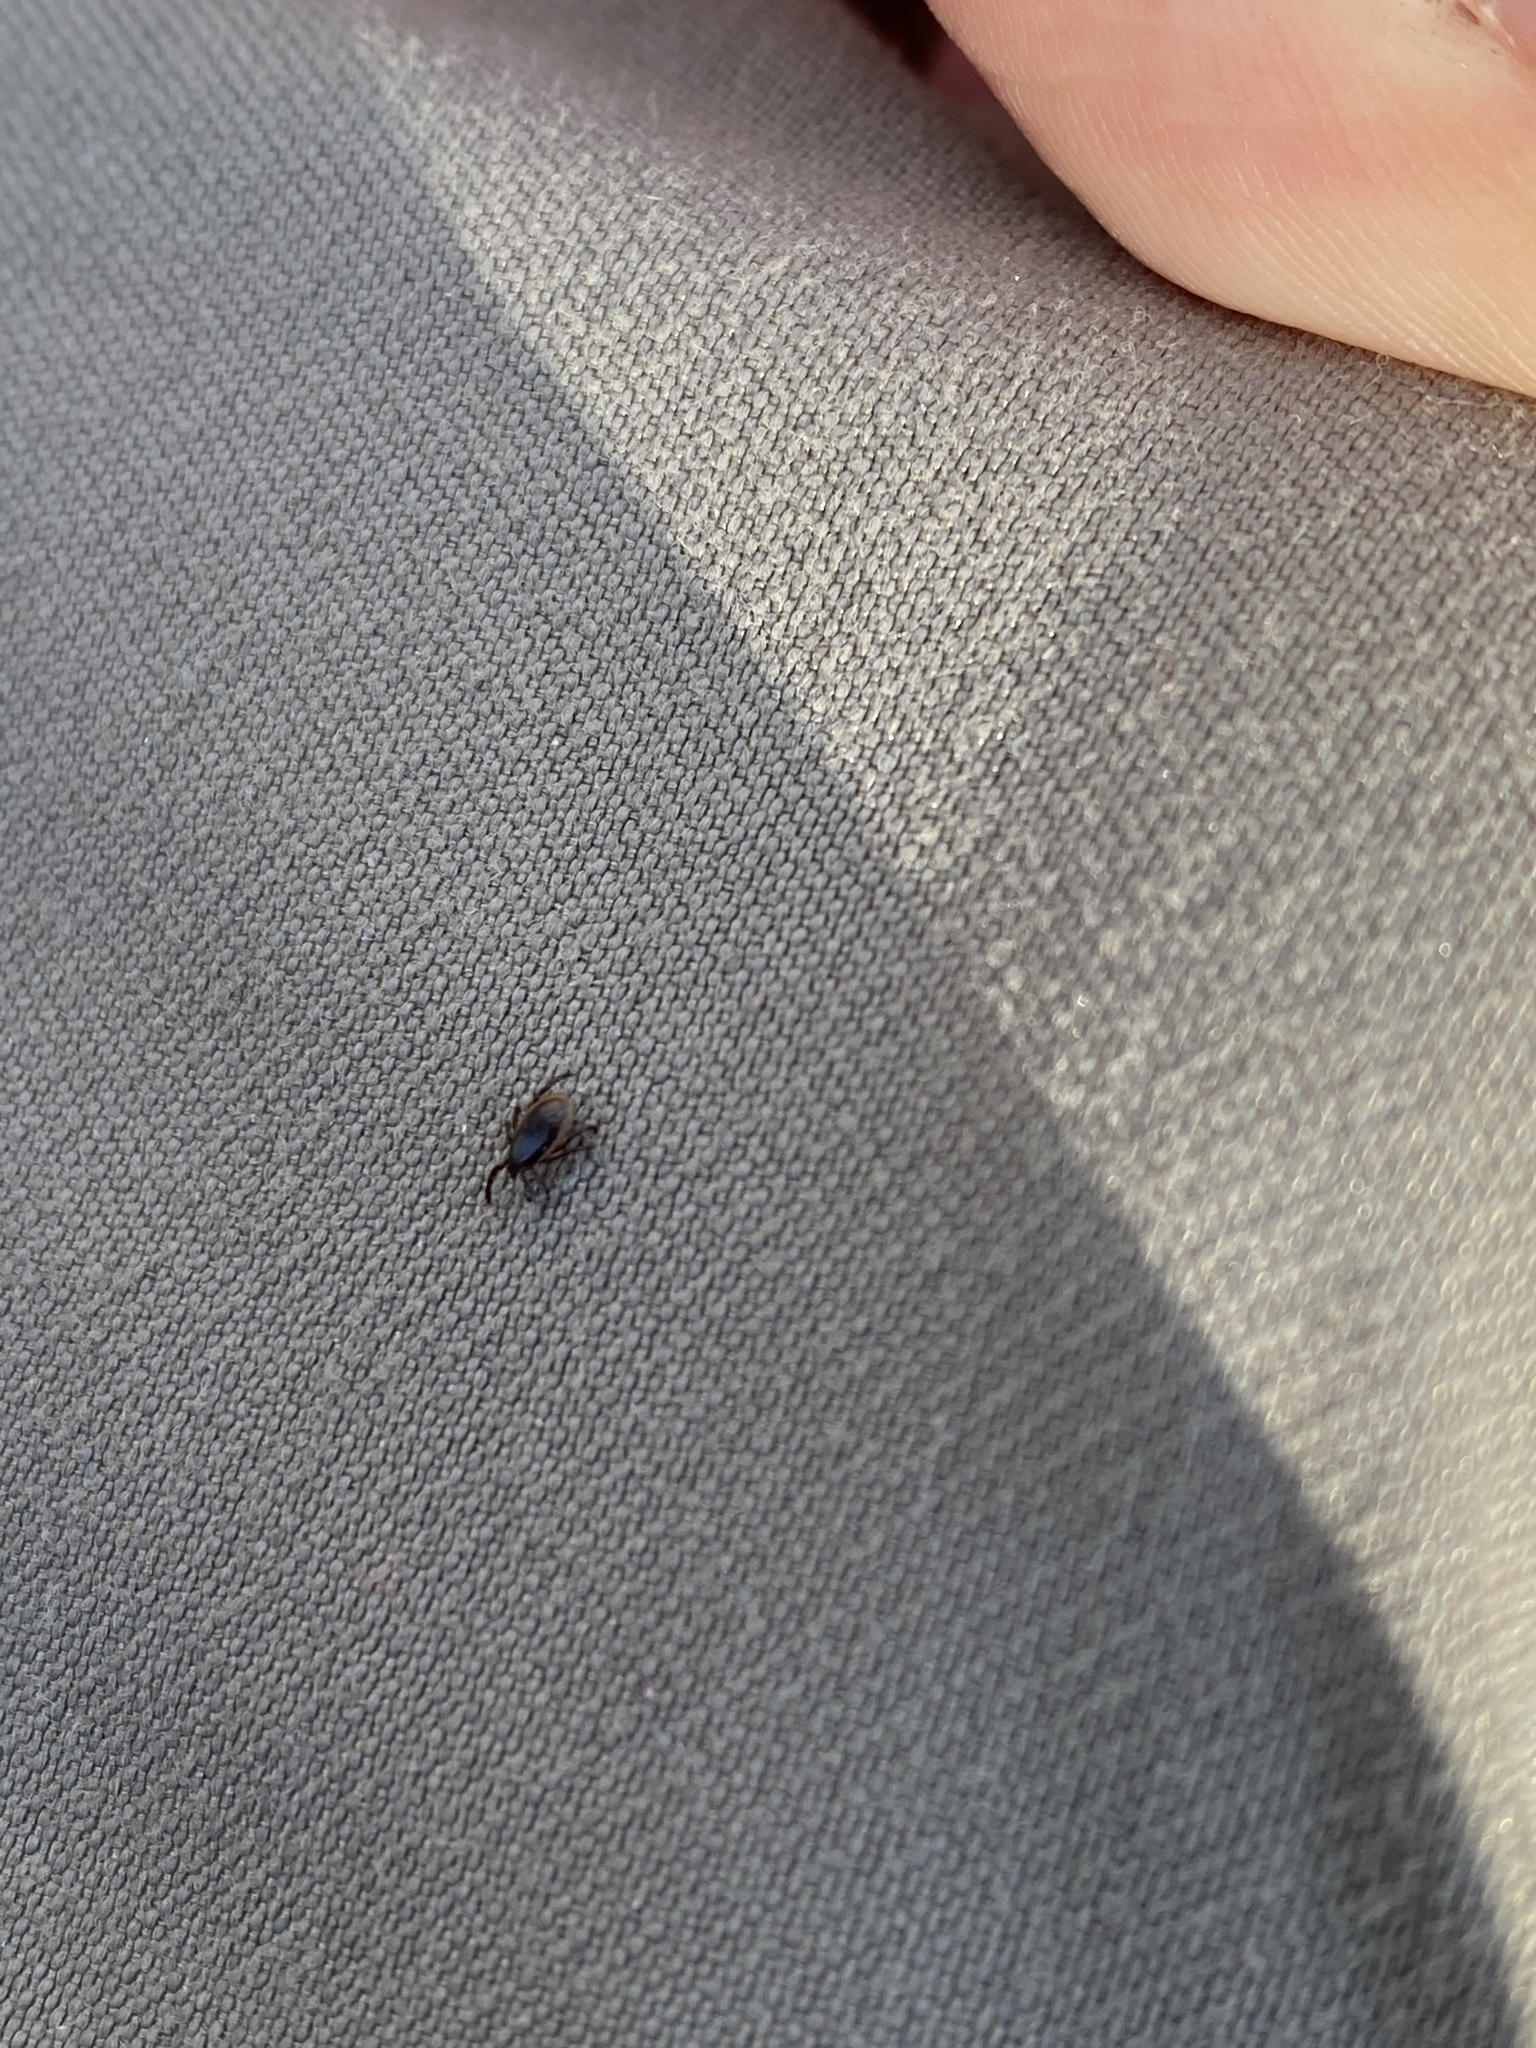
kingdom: Animalia
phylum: Arthropoda
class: Arachnida
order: Ixodida
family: Ixodidae
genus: Ixodes
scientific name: Ixodes scapularis
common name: Black legged tick
